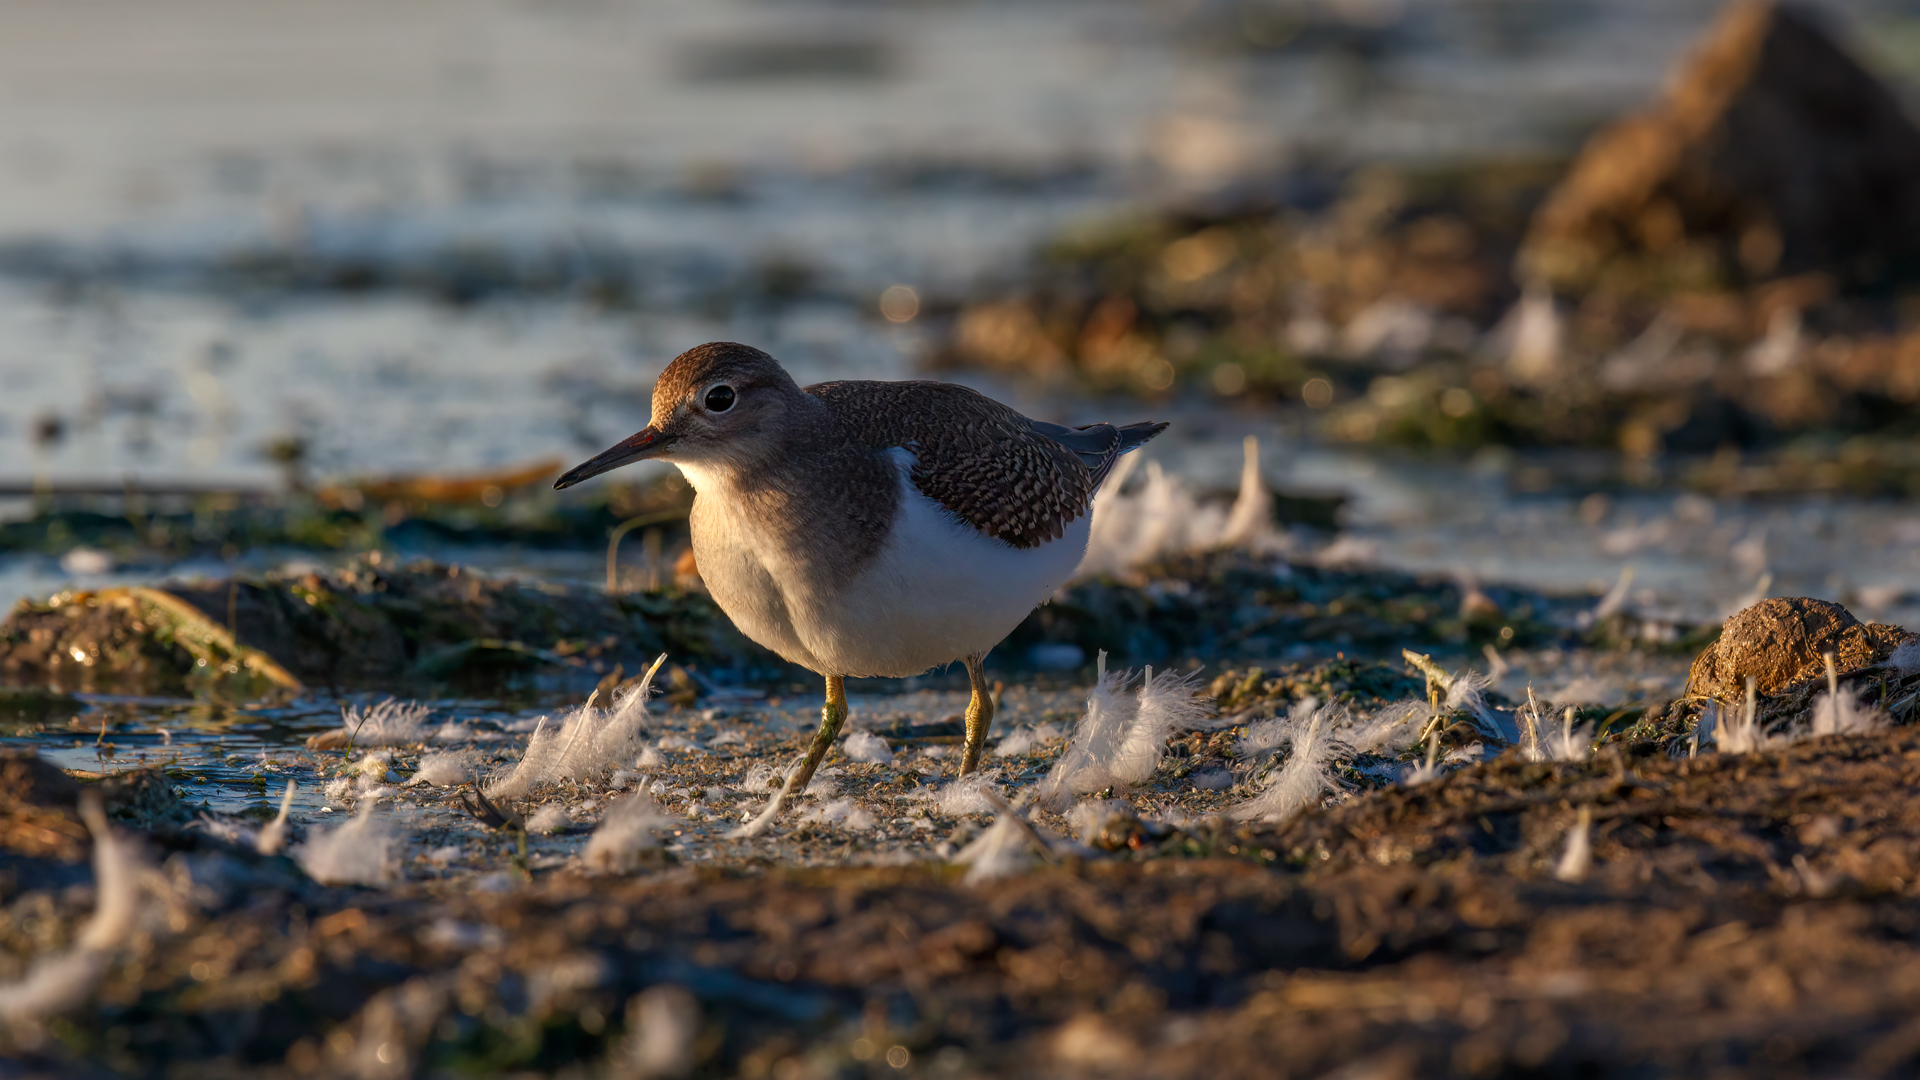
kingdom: Animalia
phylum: Chordata
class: Aves
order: Charadriiformes
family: Scolopacidae
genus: Actitis
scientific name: Actitis hypoleucos
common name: Common sandpiper
